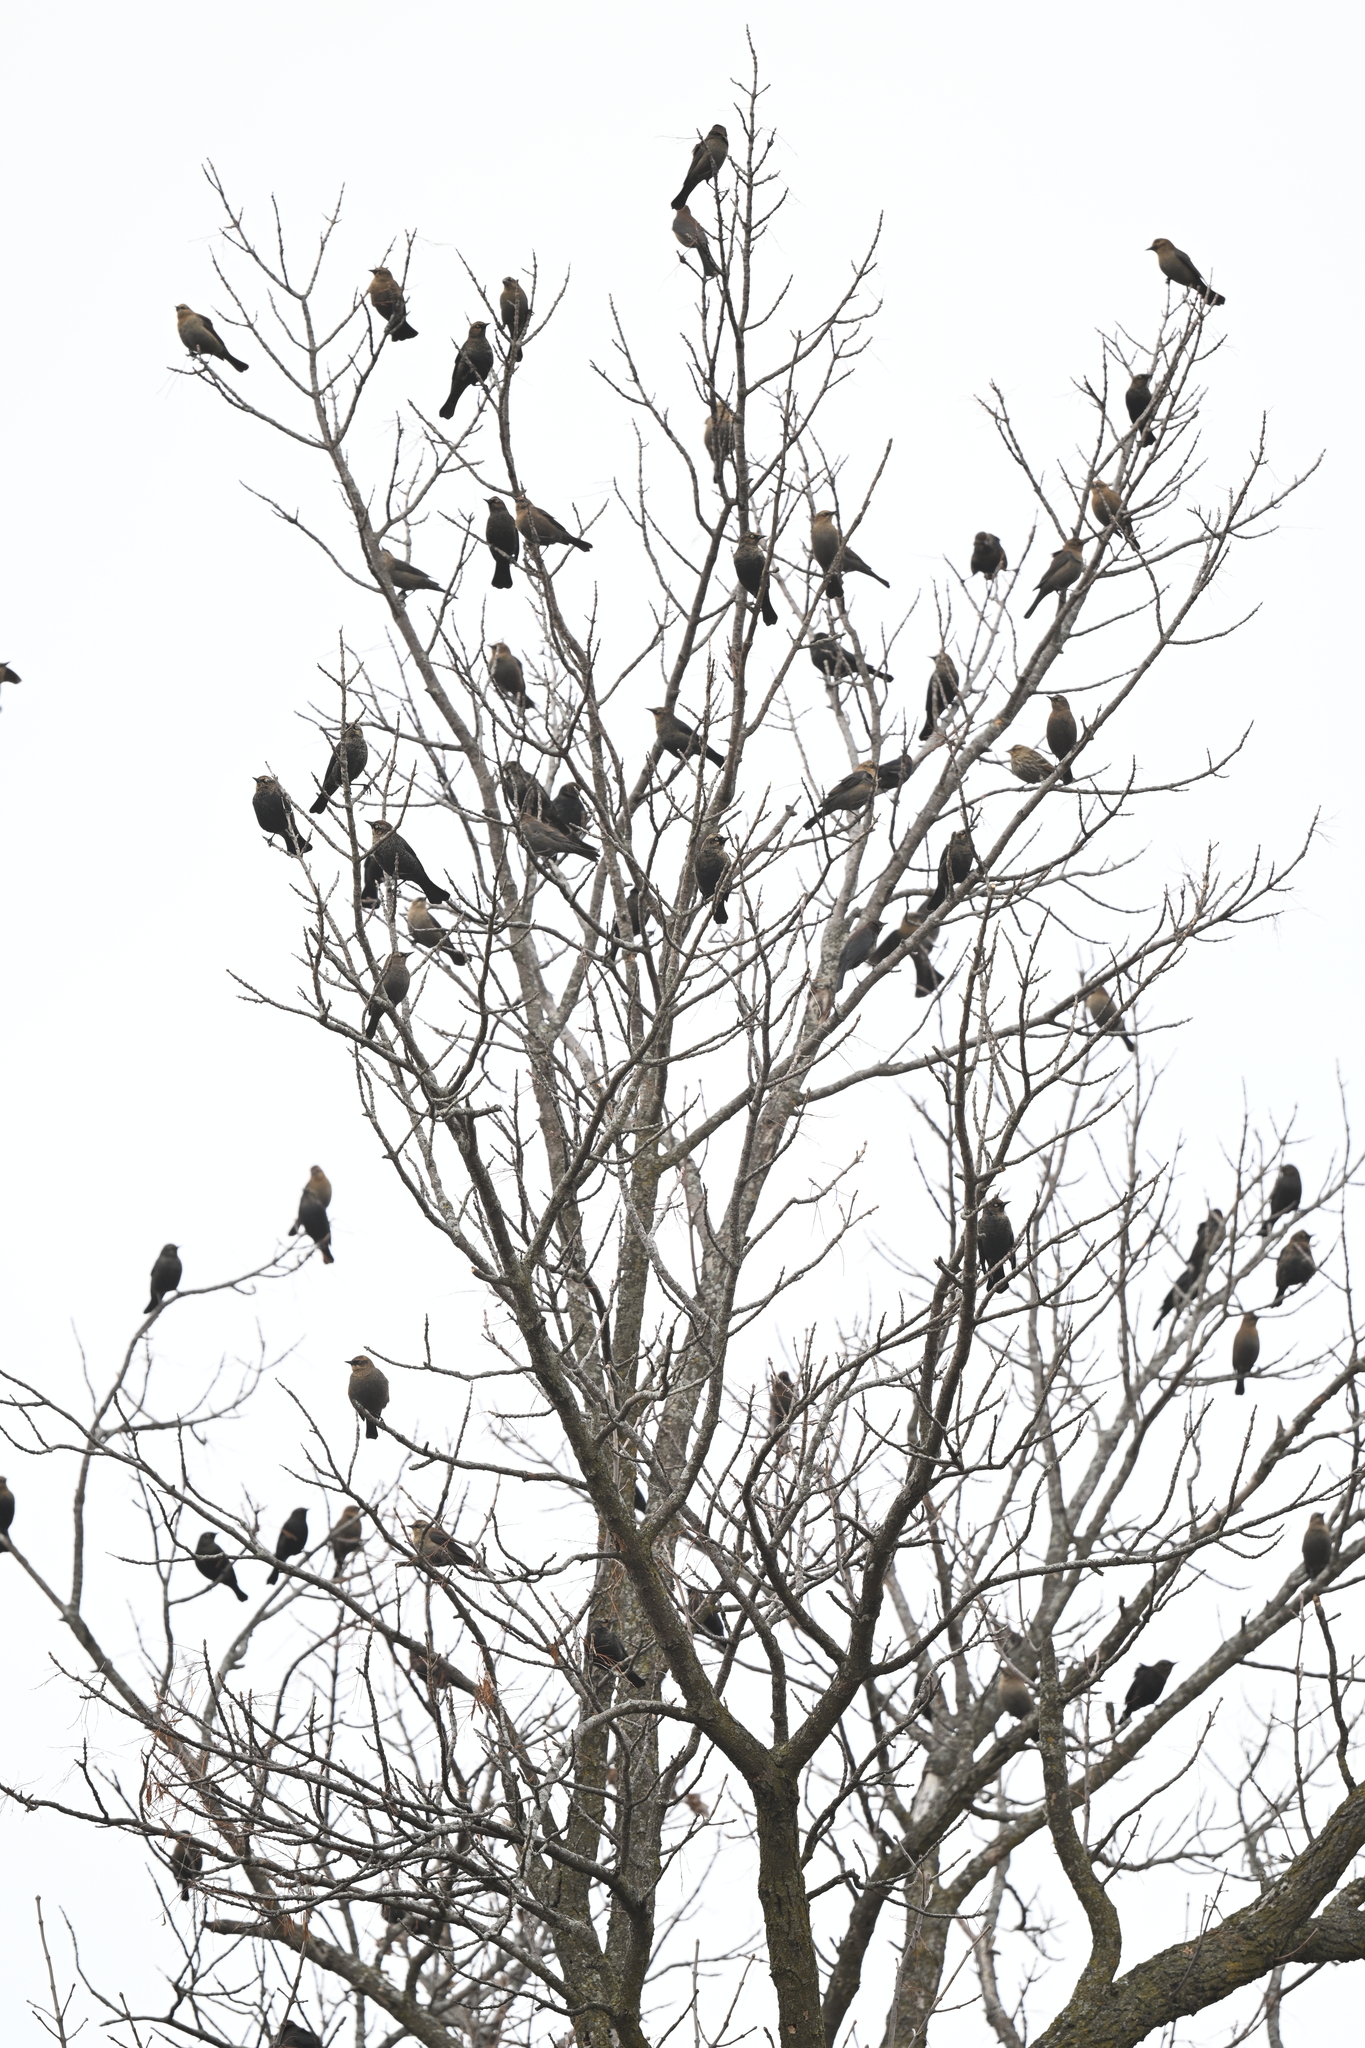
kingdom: Animalia
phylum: Chordata
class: Aves
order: Passeriformes
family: Icteridae
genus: Euphagus
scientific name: Euphagus carolinus
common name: Rusty blackbird
